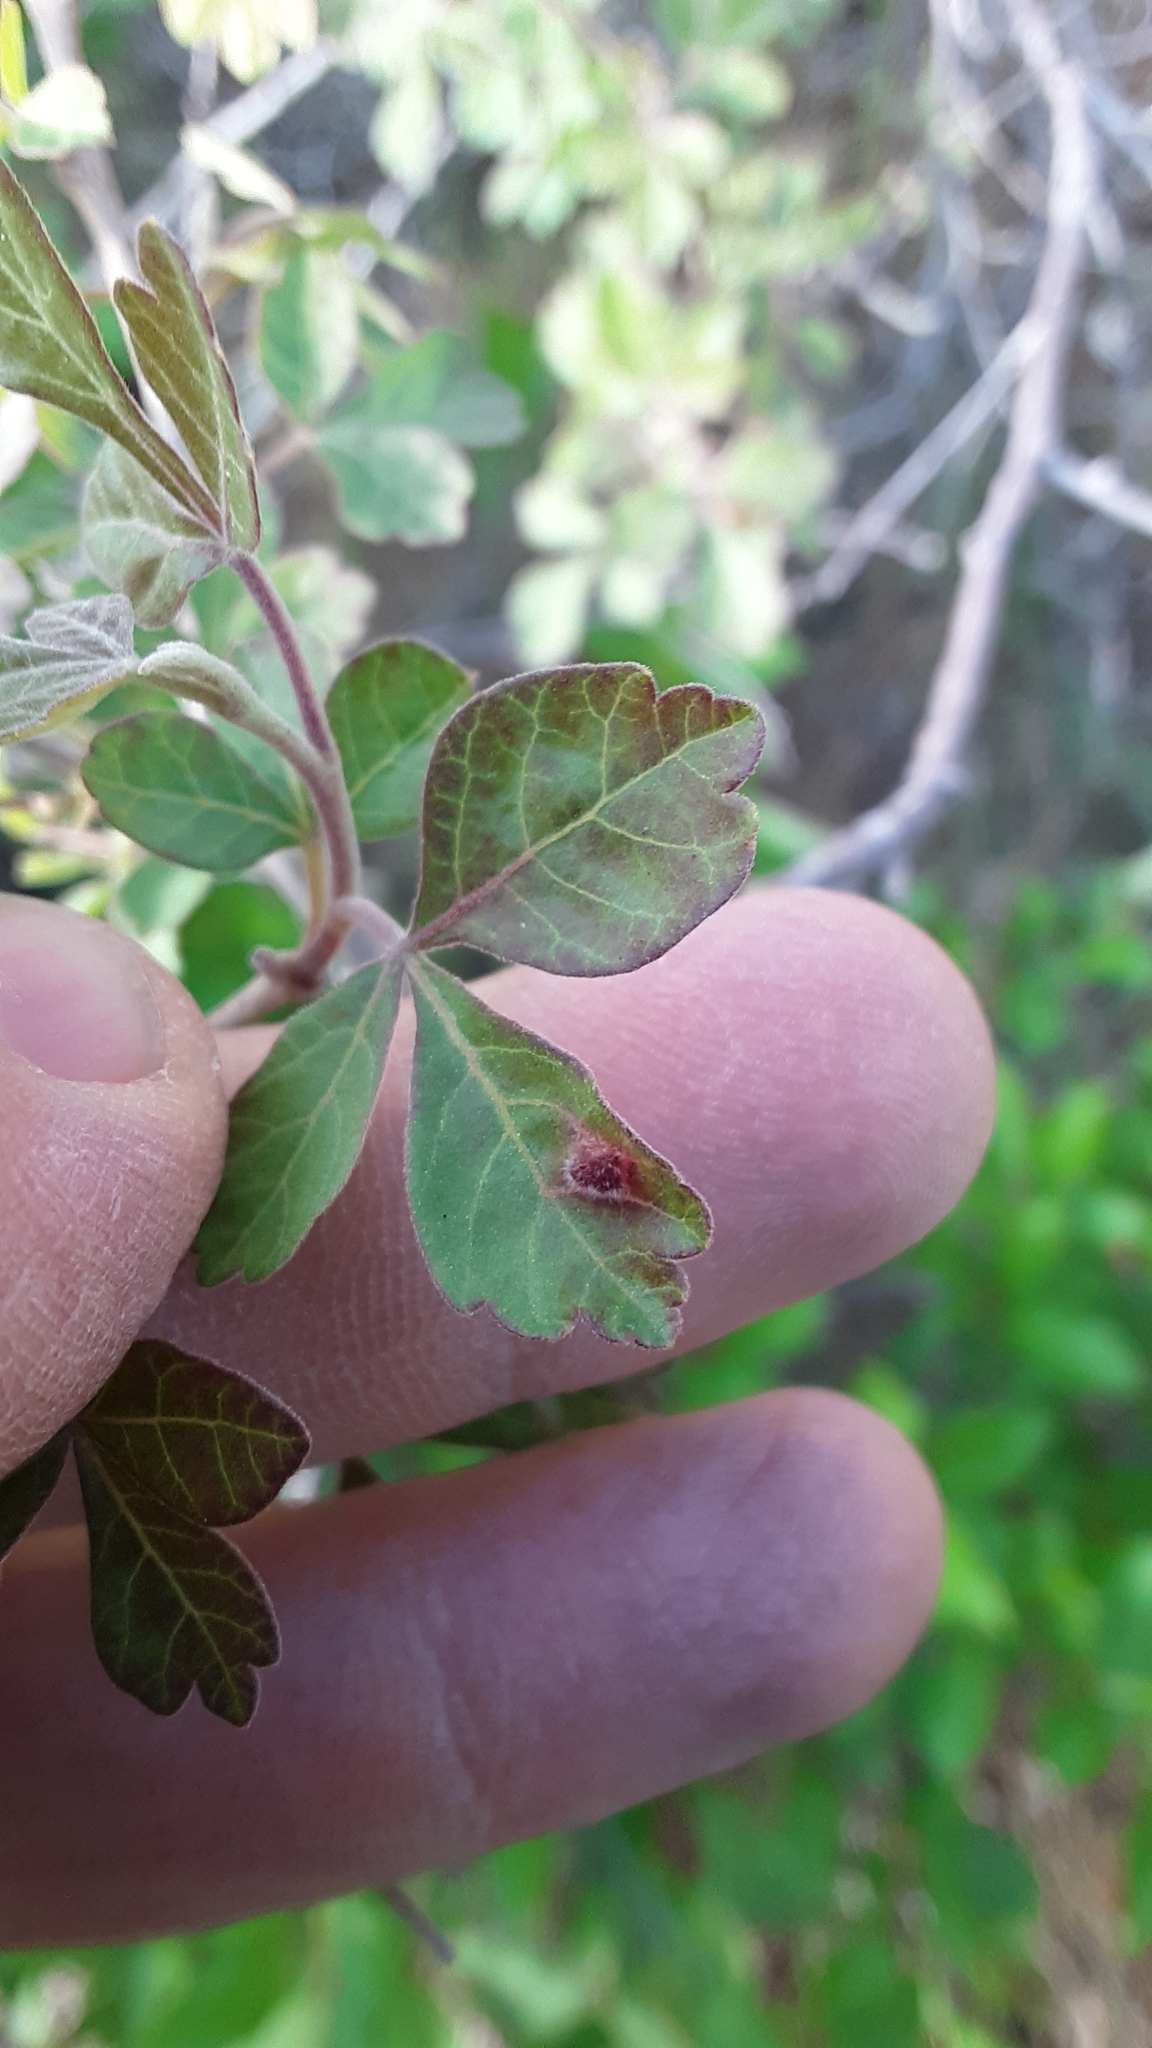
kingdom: Animalia
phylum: Arthropoda
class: Arachnida
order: Trombidiformes
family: Eriophyidae
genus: Aculops
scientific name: Aculops
